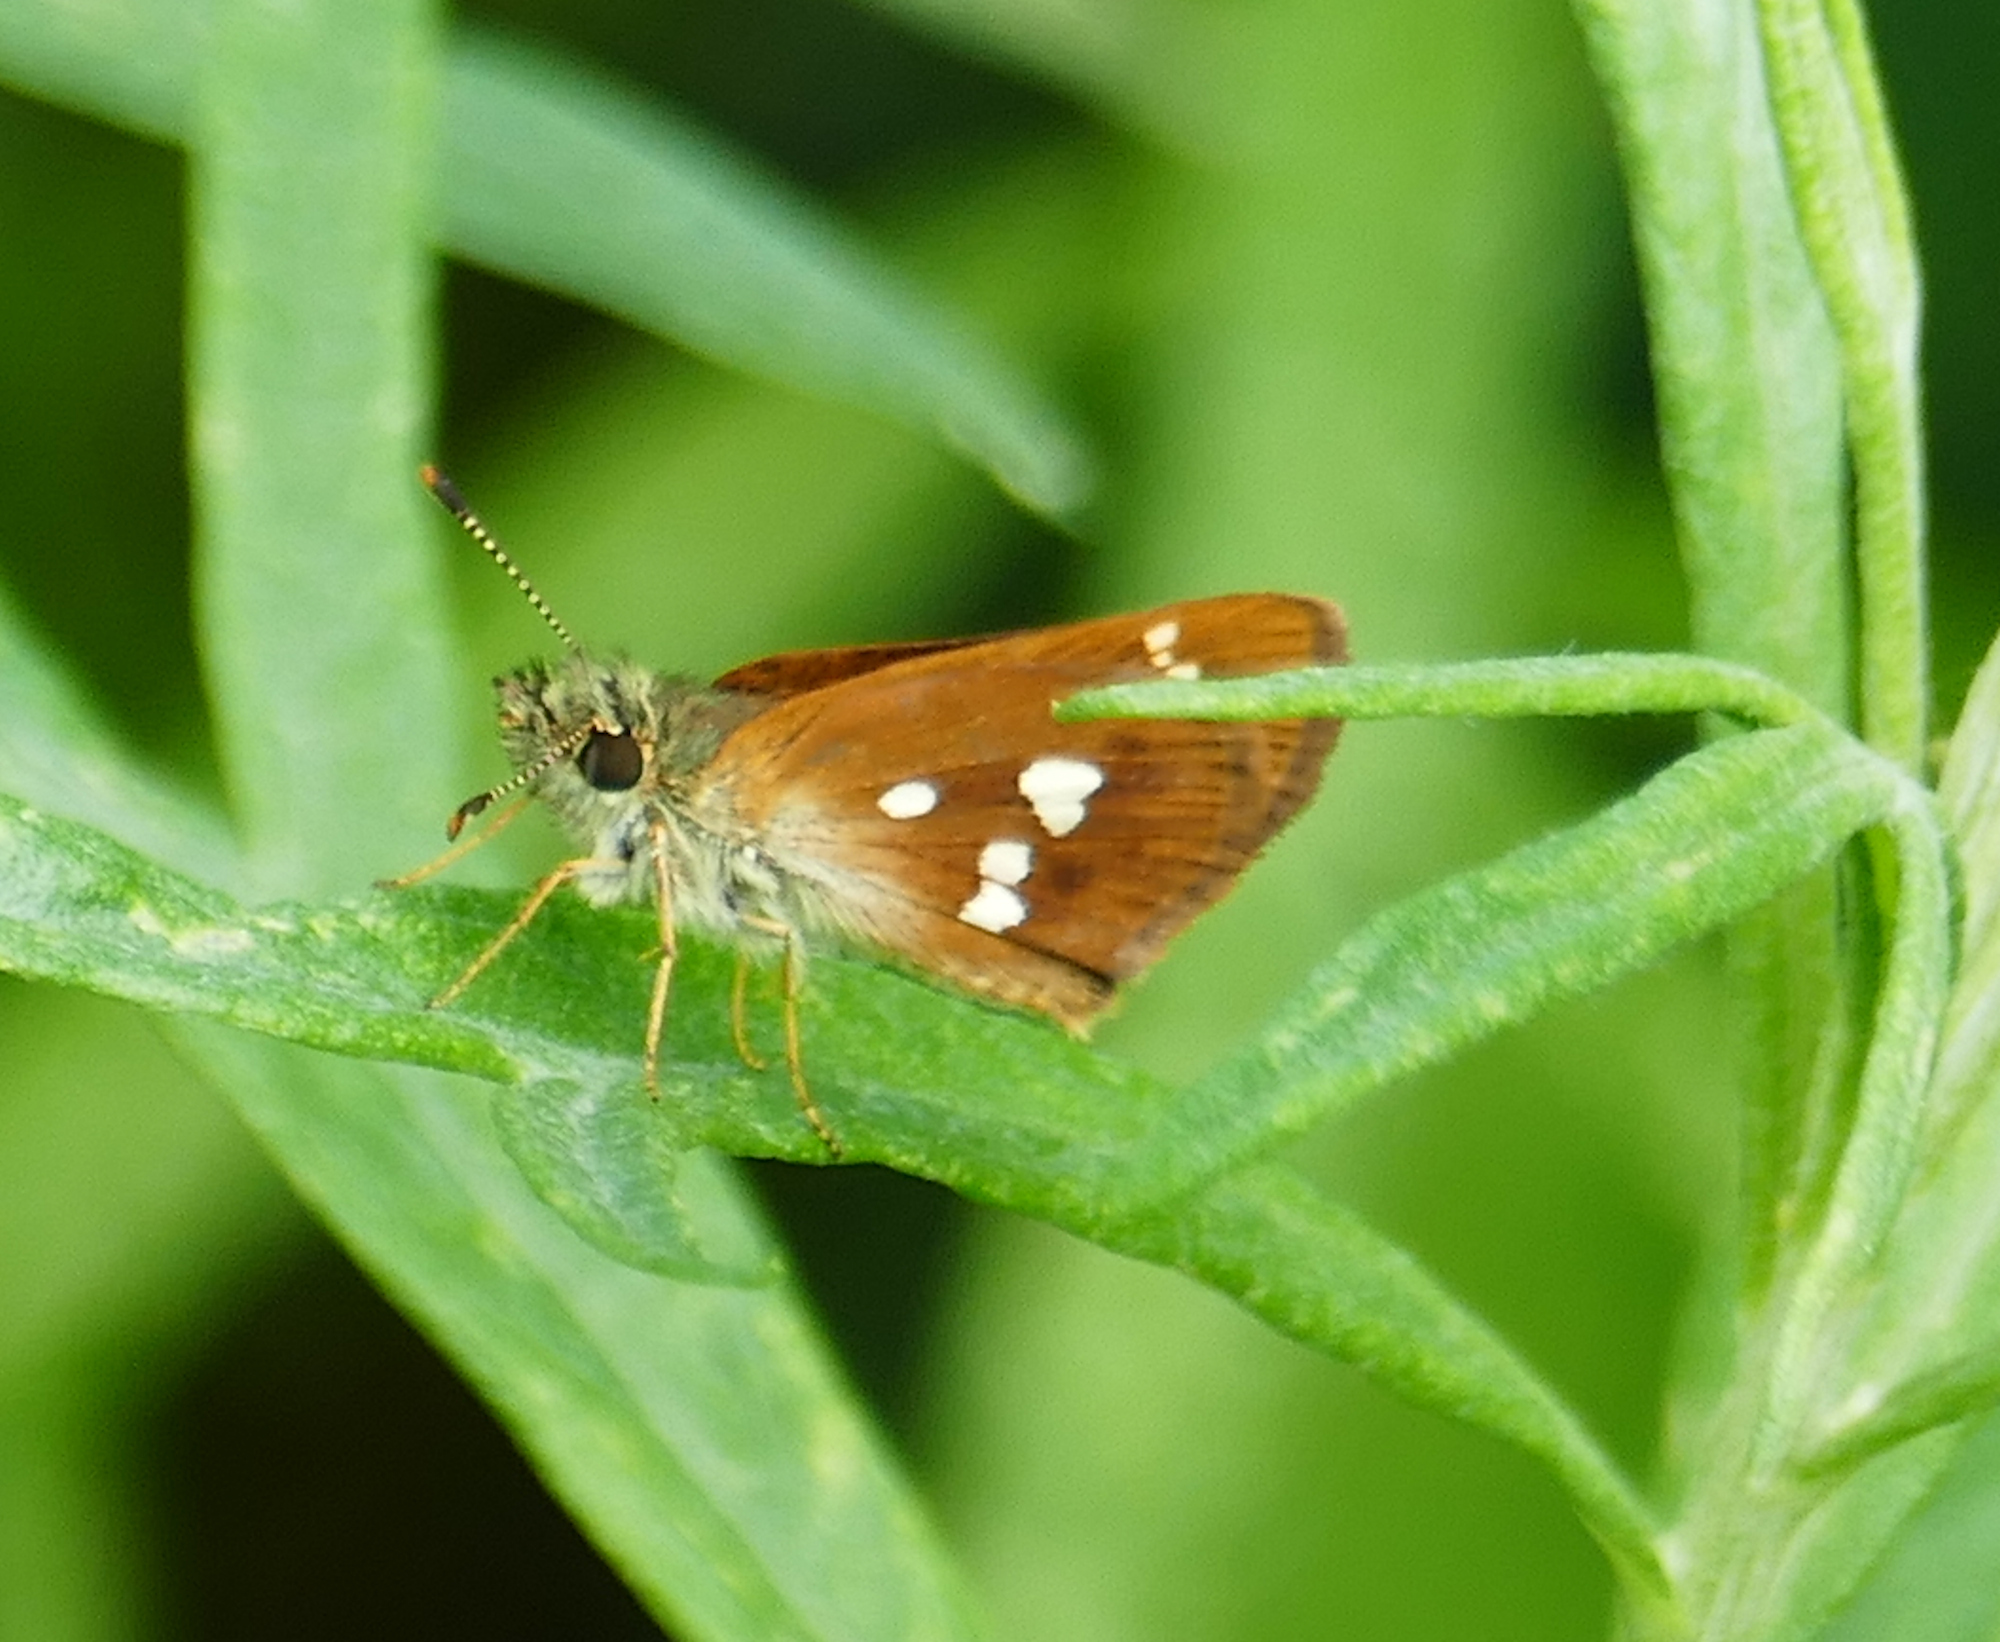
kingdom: Animalia
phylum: Arthropoda
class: Insecta
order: Lepidoptera
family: Hesperiidae
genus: Piruna
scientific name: Piruna polingii
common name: Four-spotted skipperling
